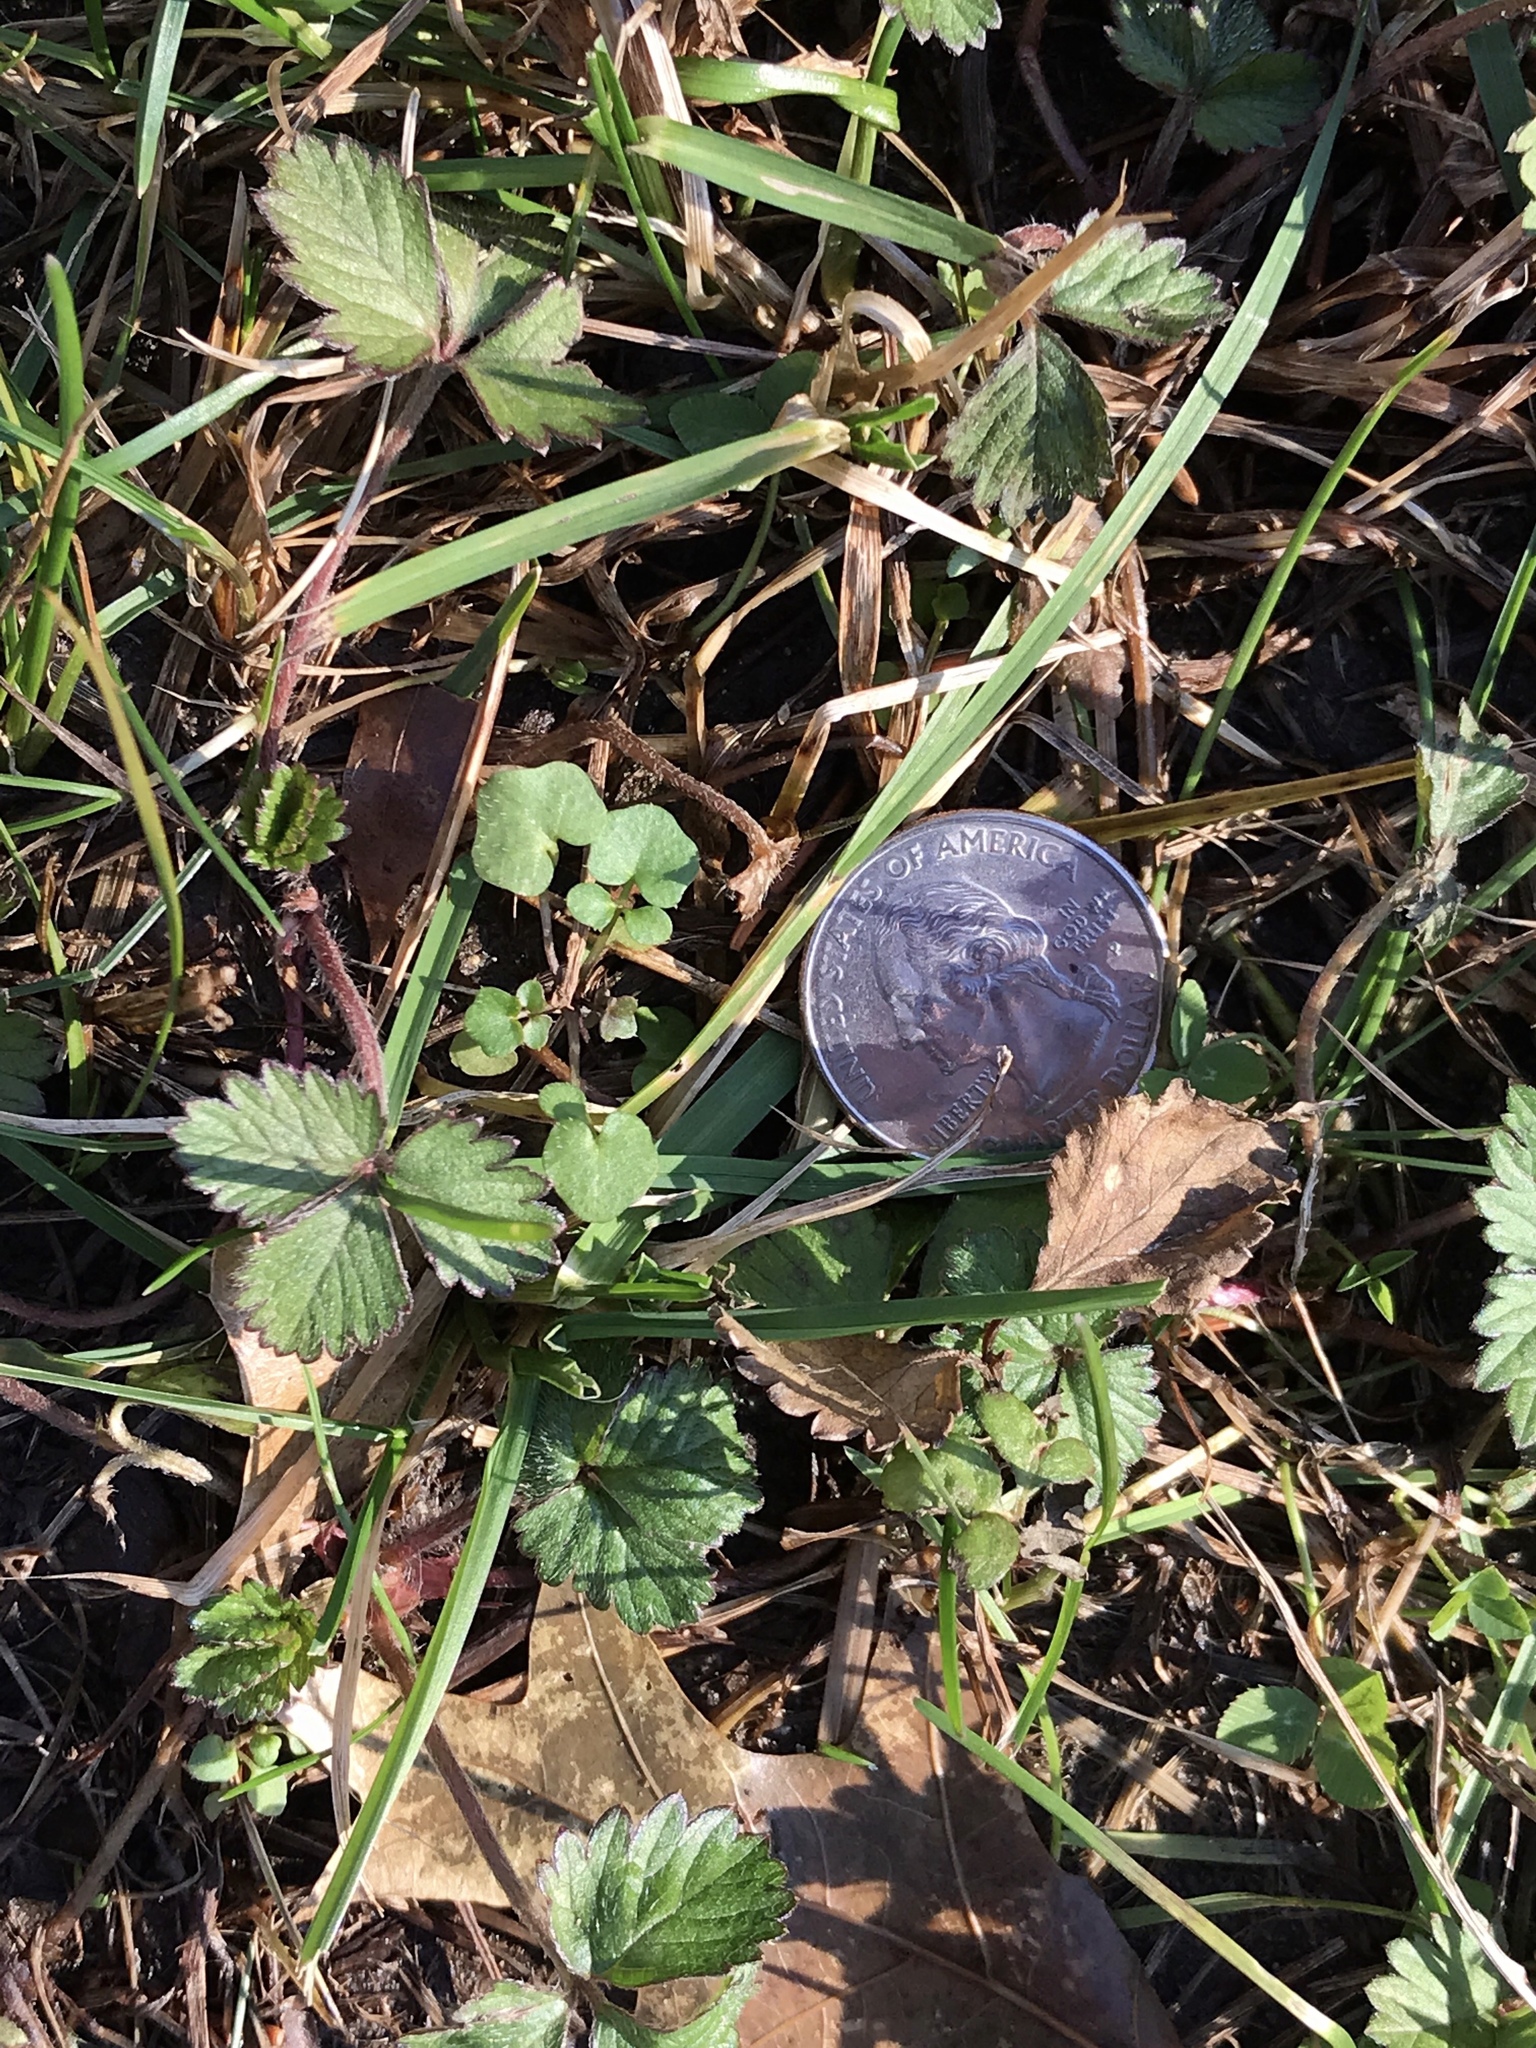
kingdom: Plantae
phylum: Tracheophyta
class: Magnoliopsida
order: Rosales
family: Rosaceae
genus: Potentilla
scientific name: Potentilla indica
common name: Yellow-flowered strawberry
